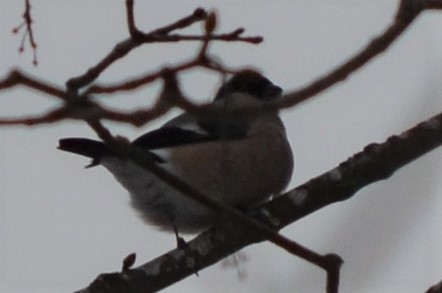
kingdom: Animalia
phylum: Chordata
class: Aves
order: Passeriformes
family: Fringillidae
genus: Pyrrhula
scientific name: Pyrrhula pyrrhula
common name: Eurasian bullfinch
